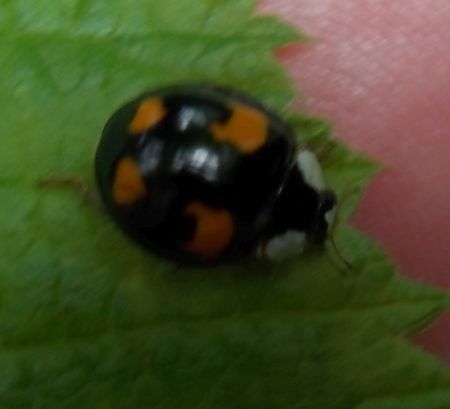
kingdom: Animalia
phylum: Arthropoda
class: Insecta
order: Coleoptera
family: Coccinellidae
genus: Harmonia
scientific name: Harmonia axyridis
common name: Harlequin ladybird
